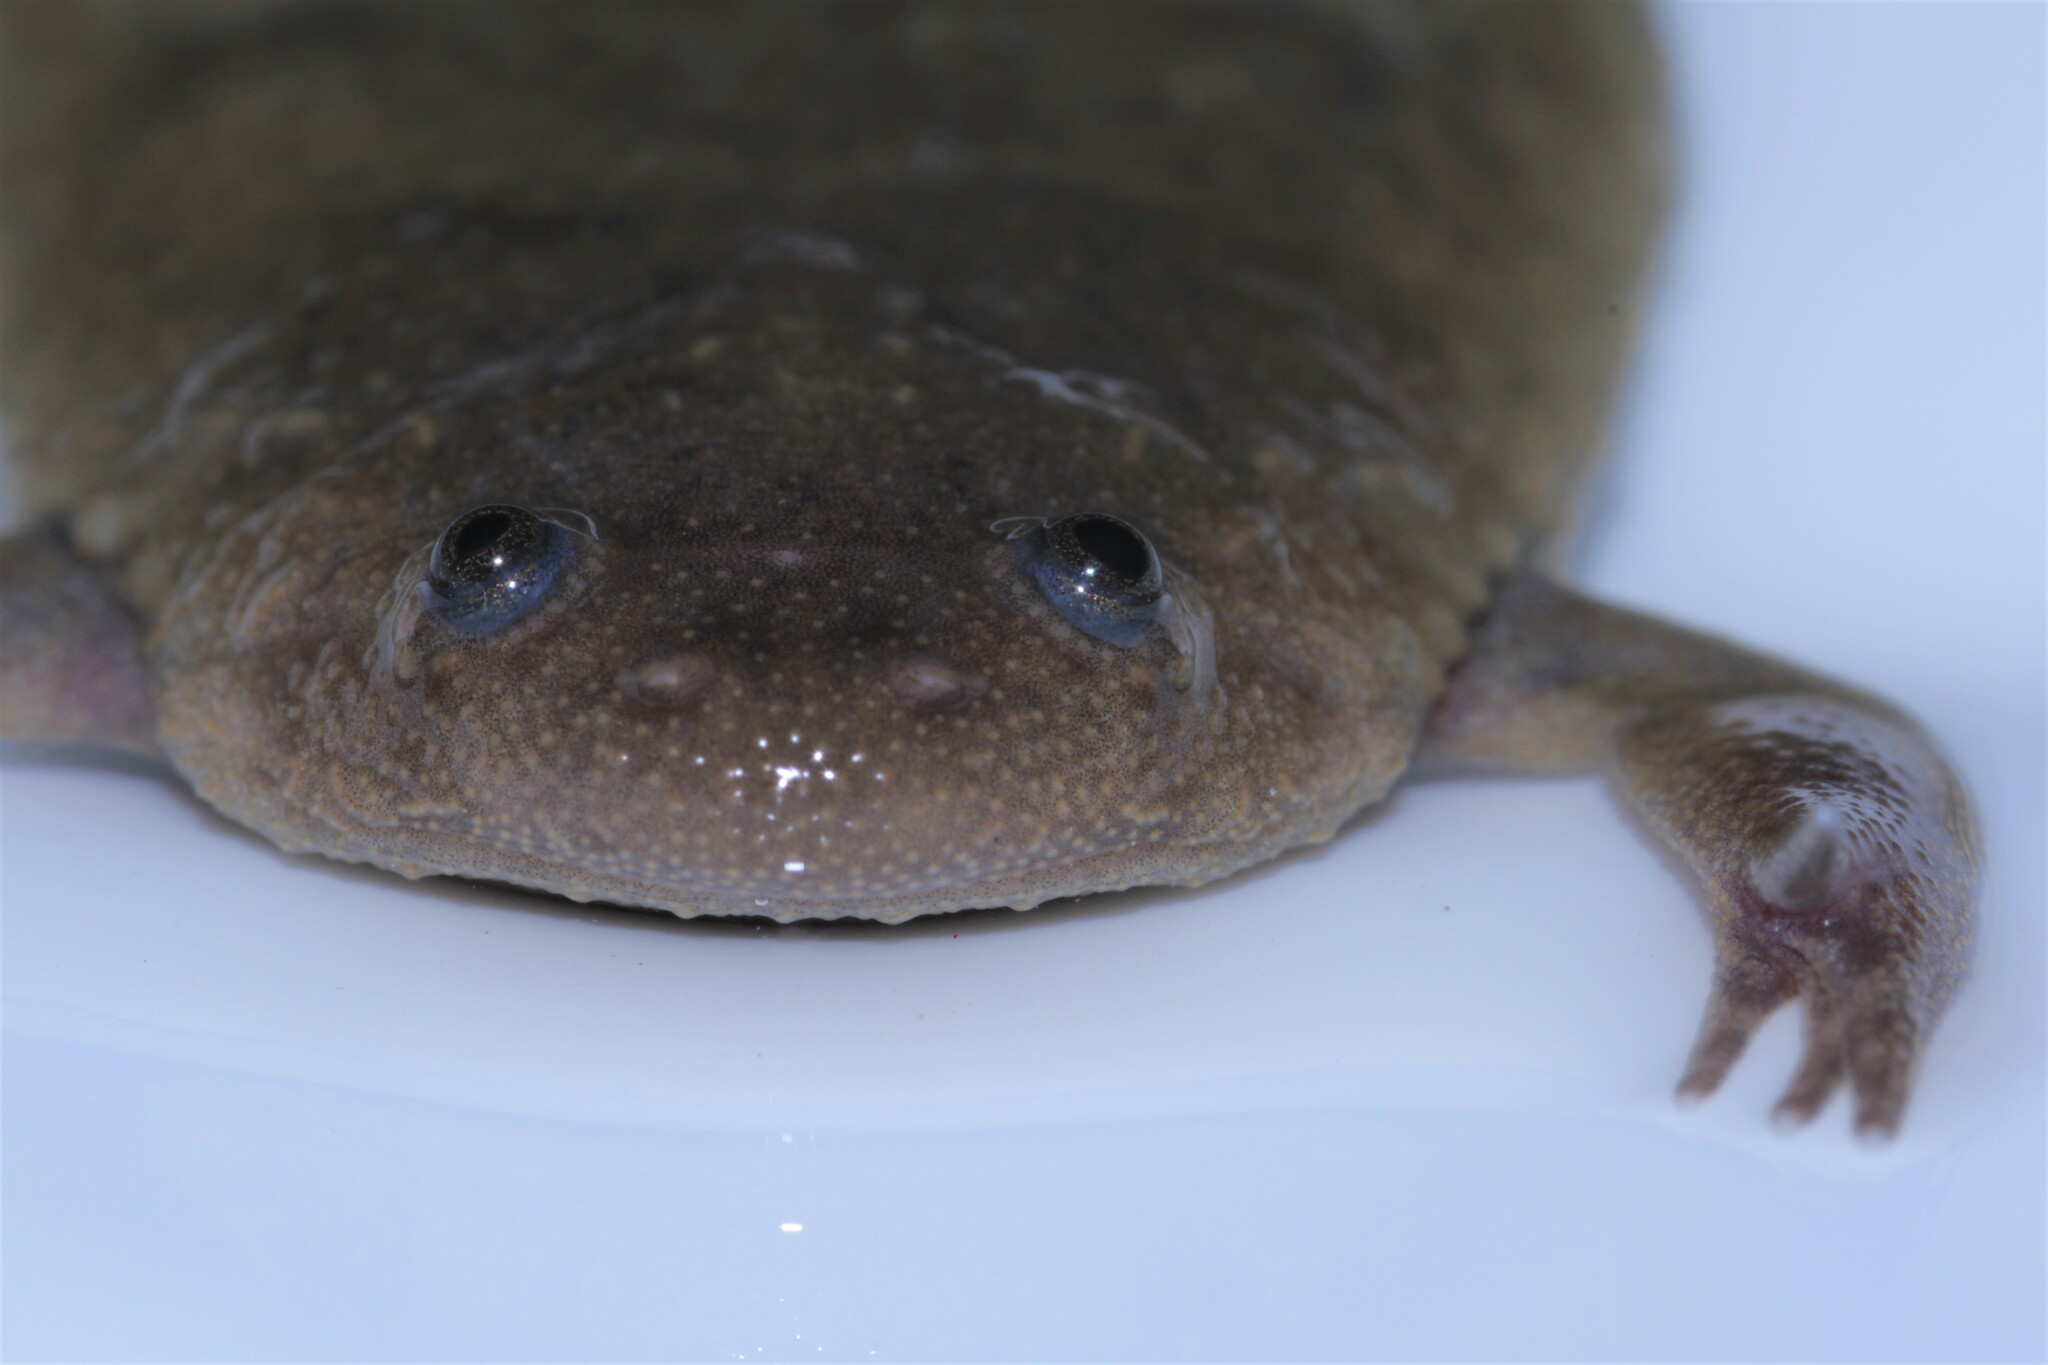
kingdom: Animalia
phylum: Chordata
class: Amphibia
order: Anura
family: Pipidae
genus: Xenopus
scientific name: Xenopus mellotropicalis
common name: Cameroon clawed frog
